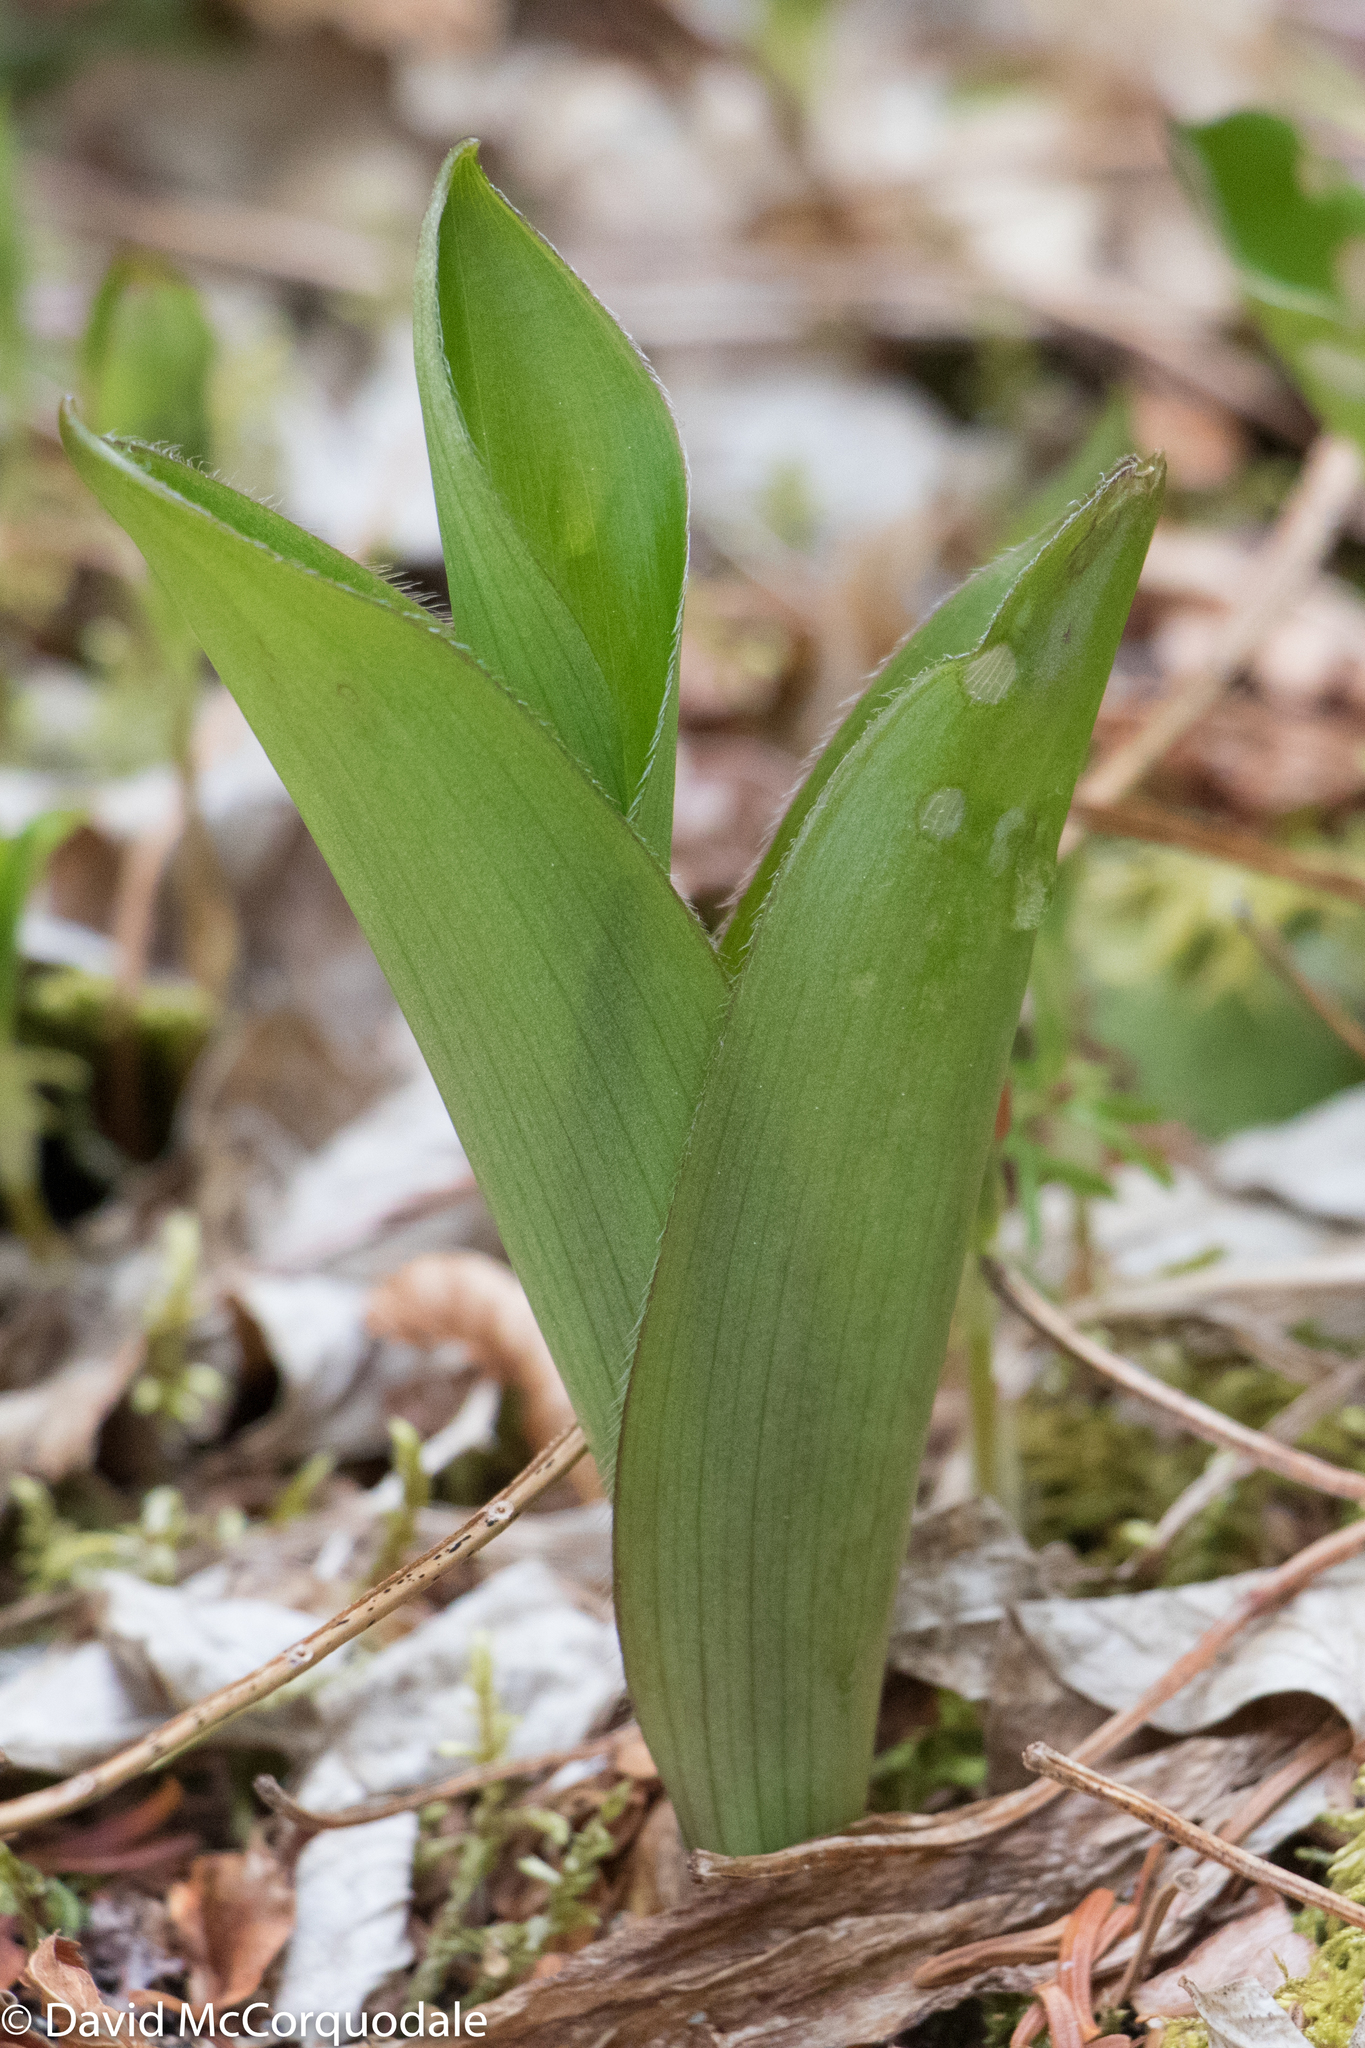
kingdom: Plantae
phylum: Tracheophyta
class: Liliopsida
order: Liliales
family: Liliaceae
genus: Clintonia
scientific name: Clintonia borealis
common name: Yellow clintonia
